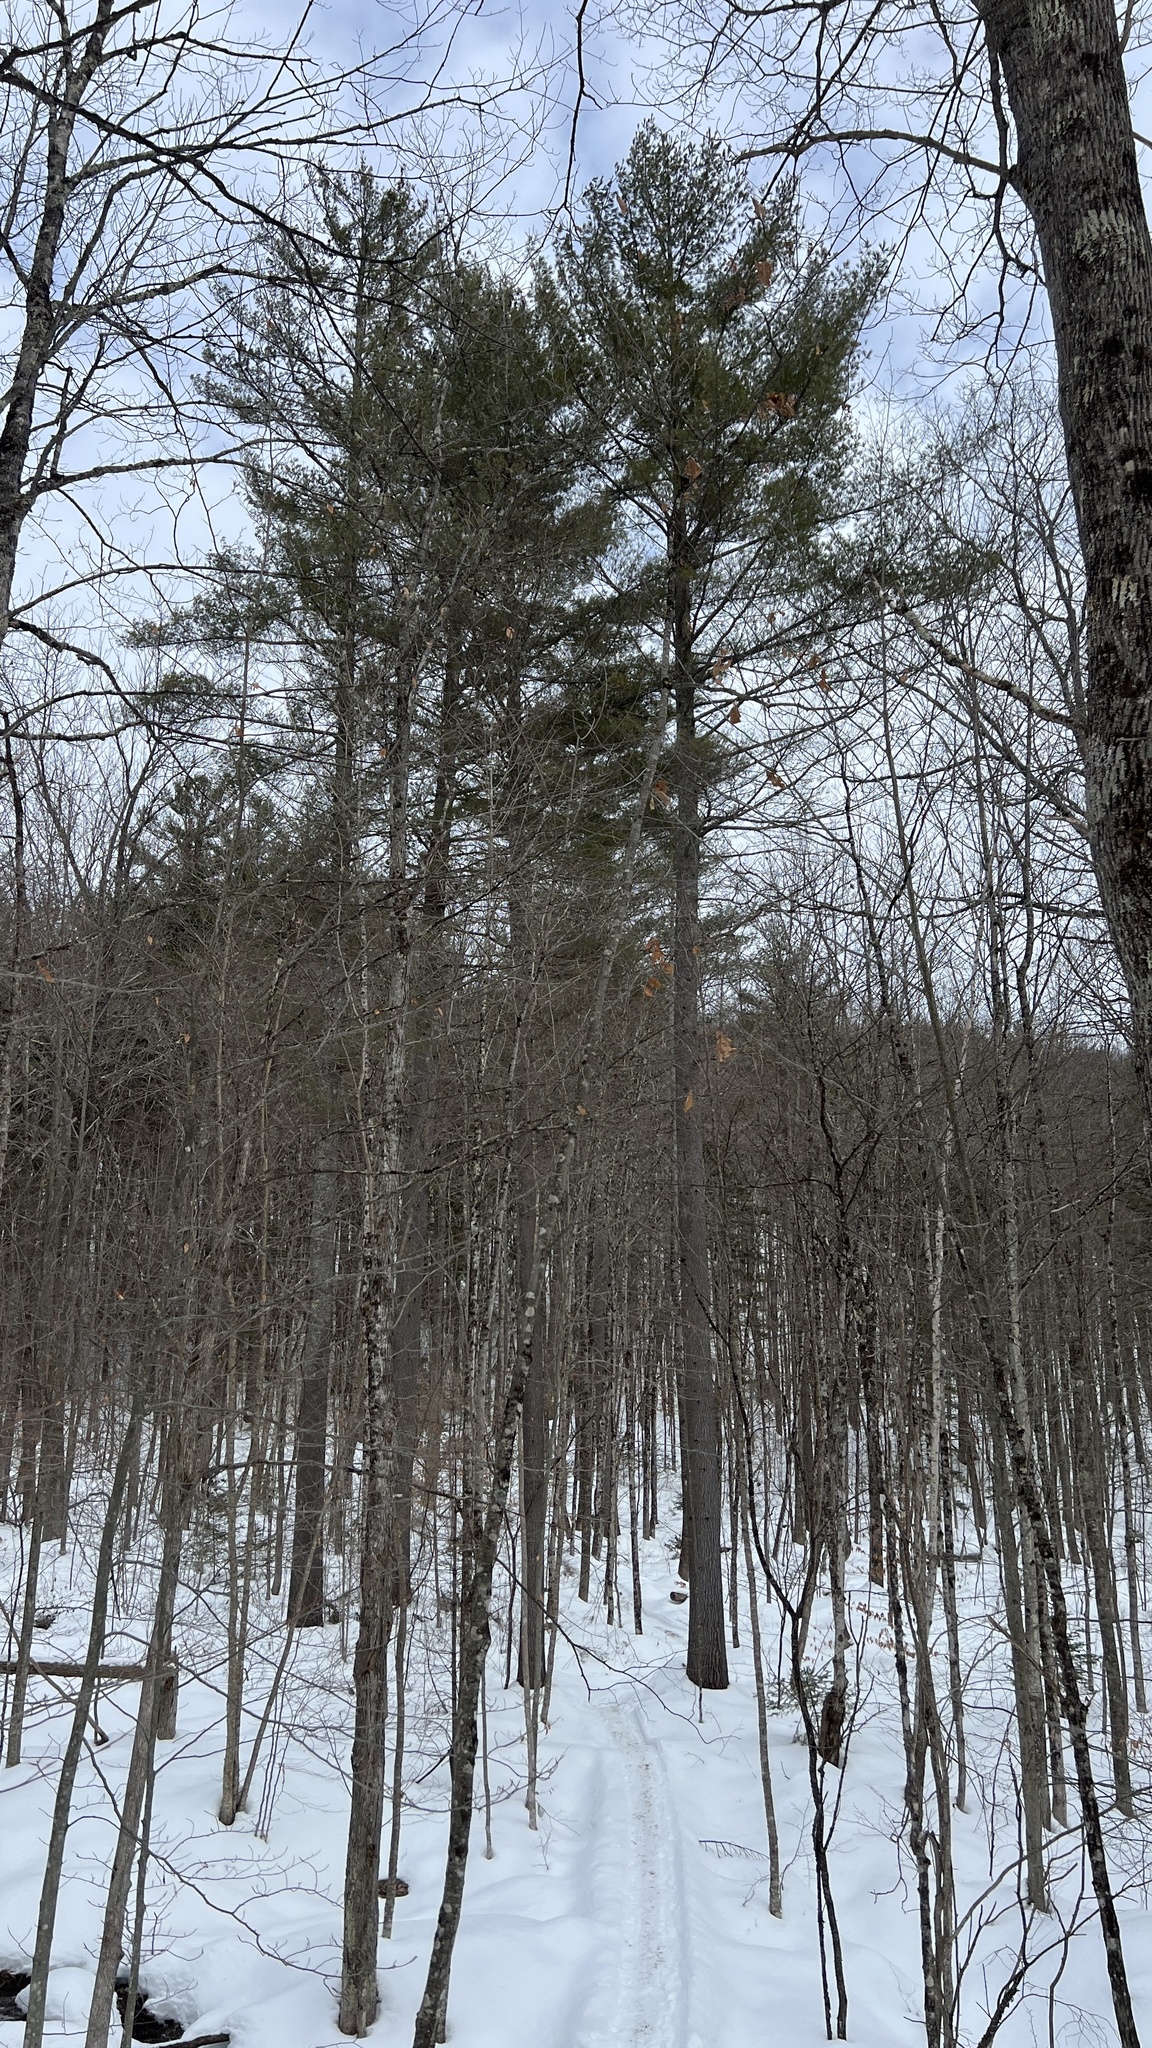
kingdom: Plantae
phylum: Tracheophyta
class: Pinopsida
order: Pinales
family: Pinaceae
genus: Pinus
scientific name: Pinus strobus
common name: Weymouth pine
